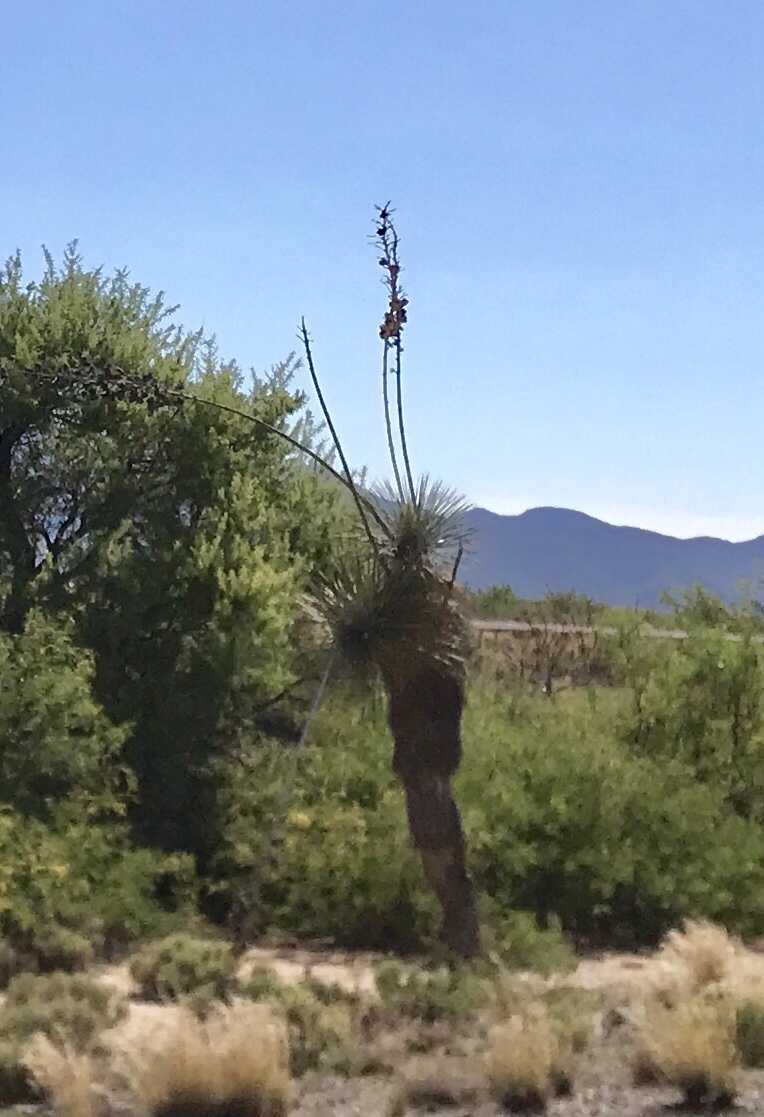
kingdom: Plantae
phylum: Tracheophyta
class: Liliopsida
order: Asparagales
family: Asparagaceae
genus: Yucca
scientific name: Yucca elata
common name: Palmella
